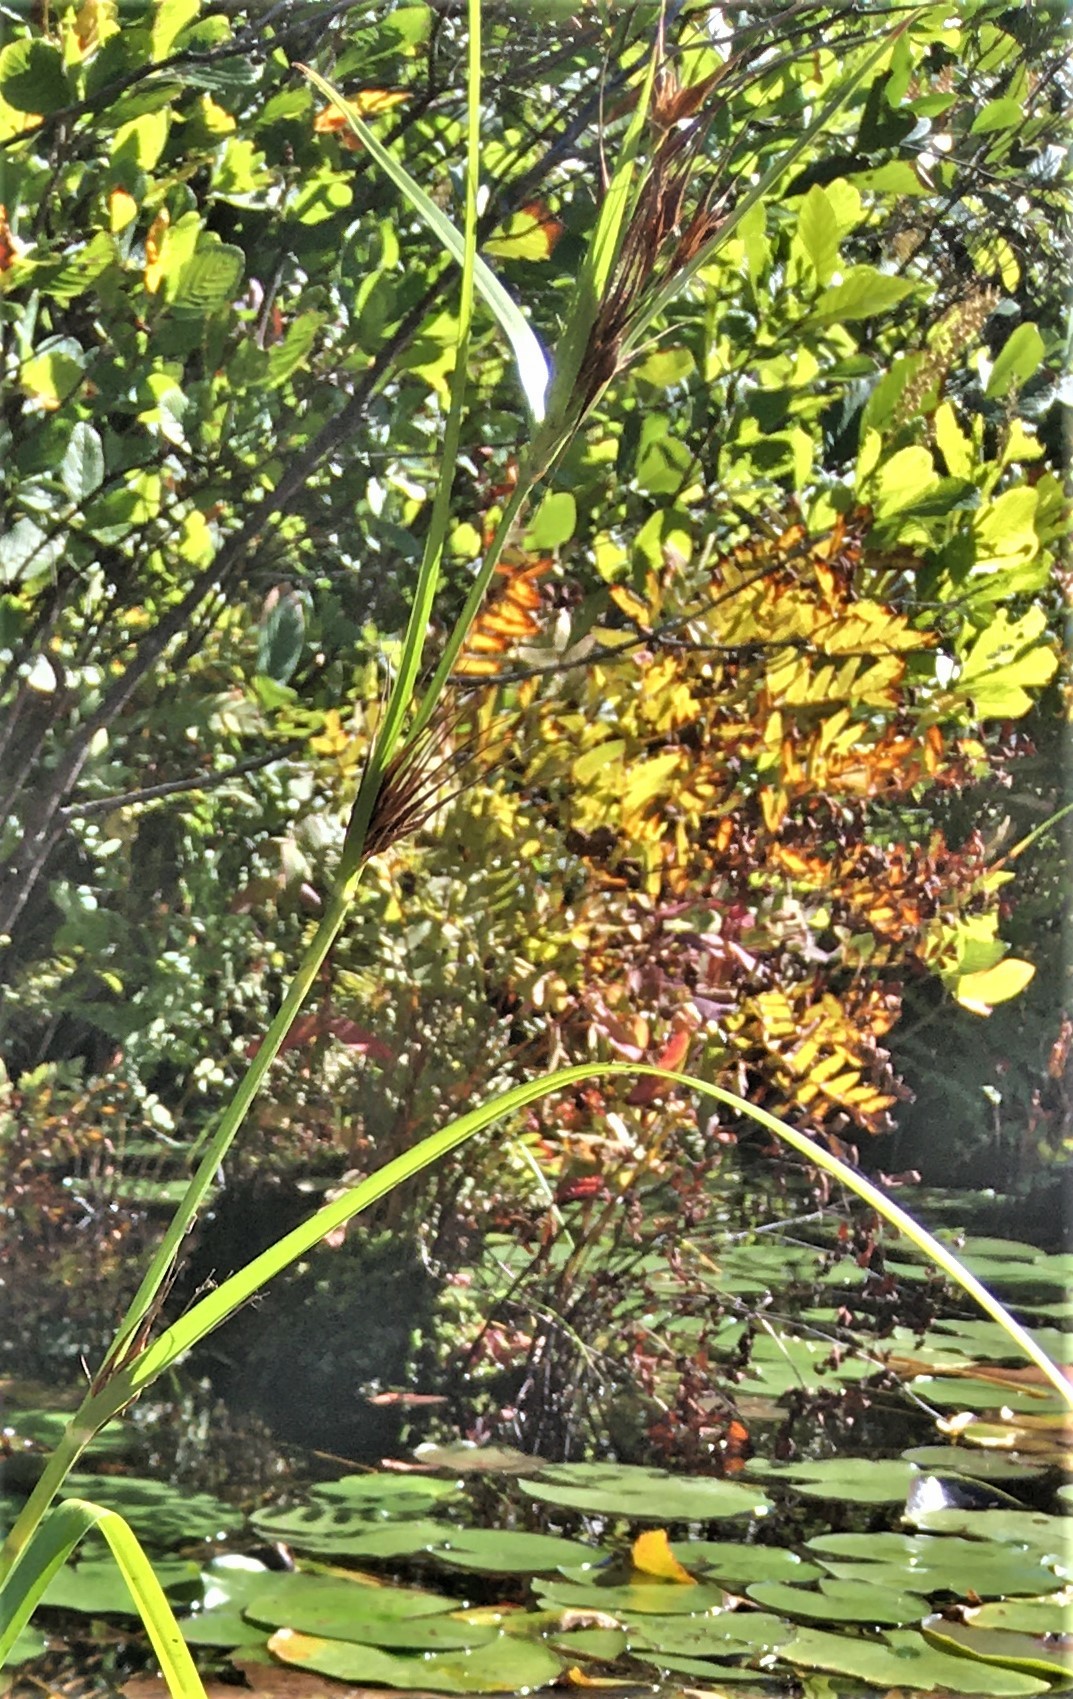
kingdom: Plantae
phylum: Tracheophyta
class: Liliopsida
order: Poales
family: Cyperaceae
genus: Rhynchospora
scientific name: Rhynchospora macrostachya
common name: Tall beakrush
